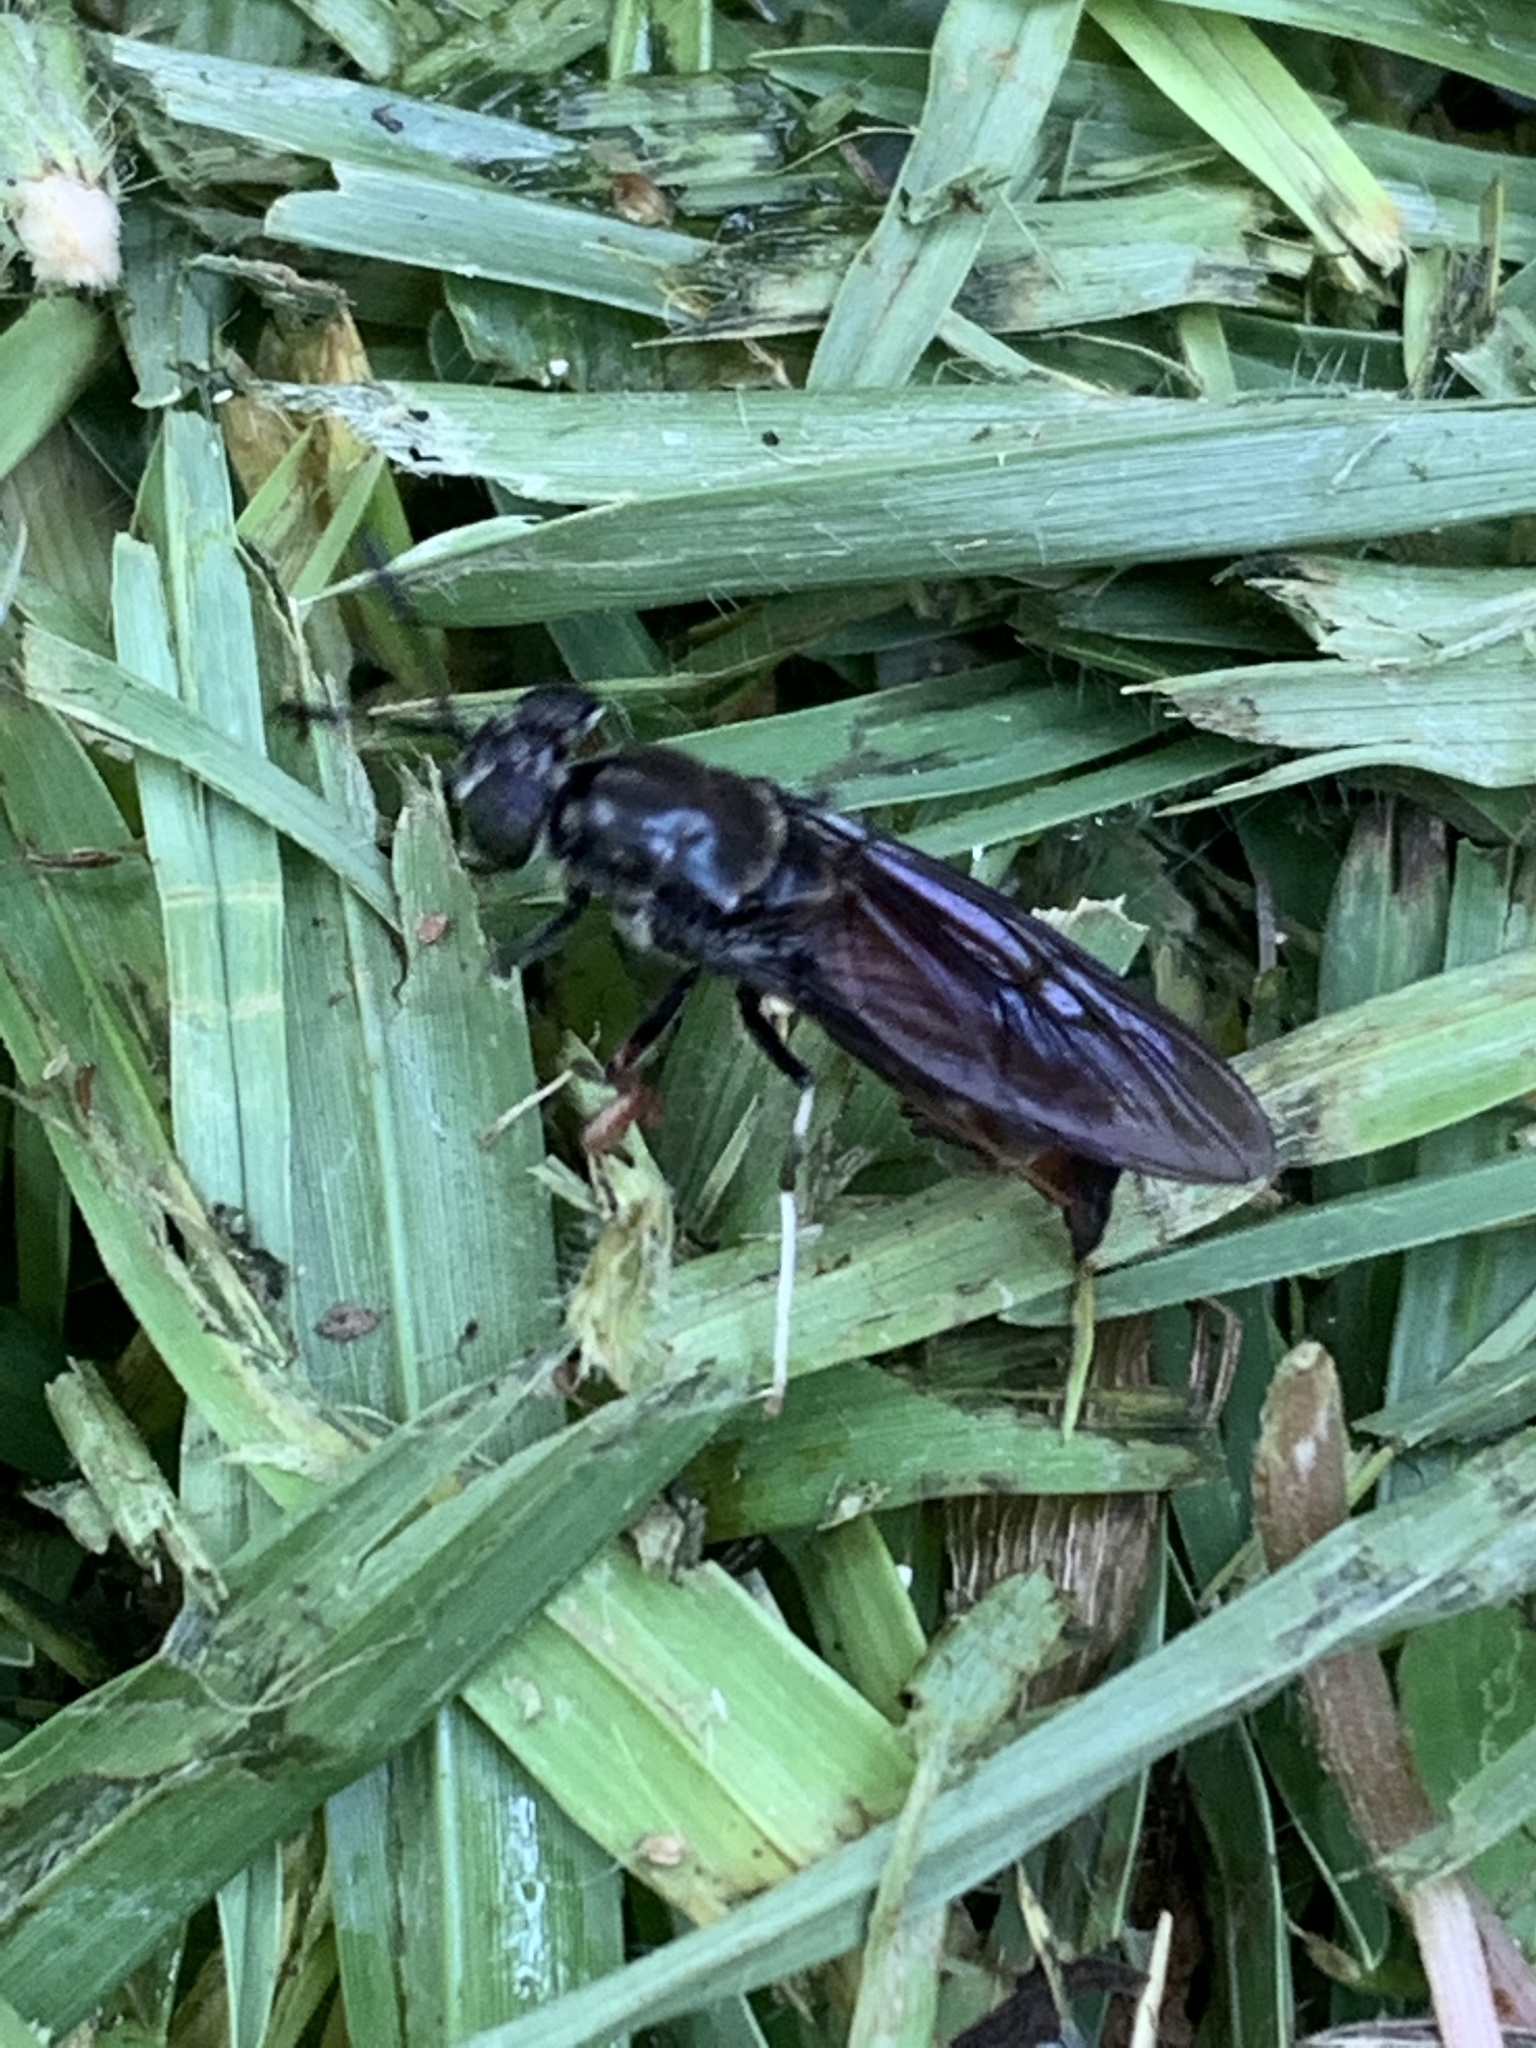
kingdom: Animalia
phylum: Arthropoda
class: Insecta
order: Diptera
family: Stratiomyidae
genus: Hermetia
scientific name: Hermetia illucens
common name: Black soldier fly
